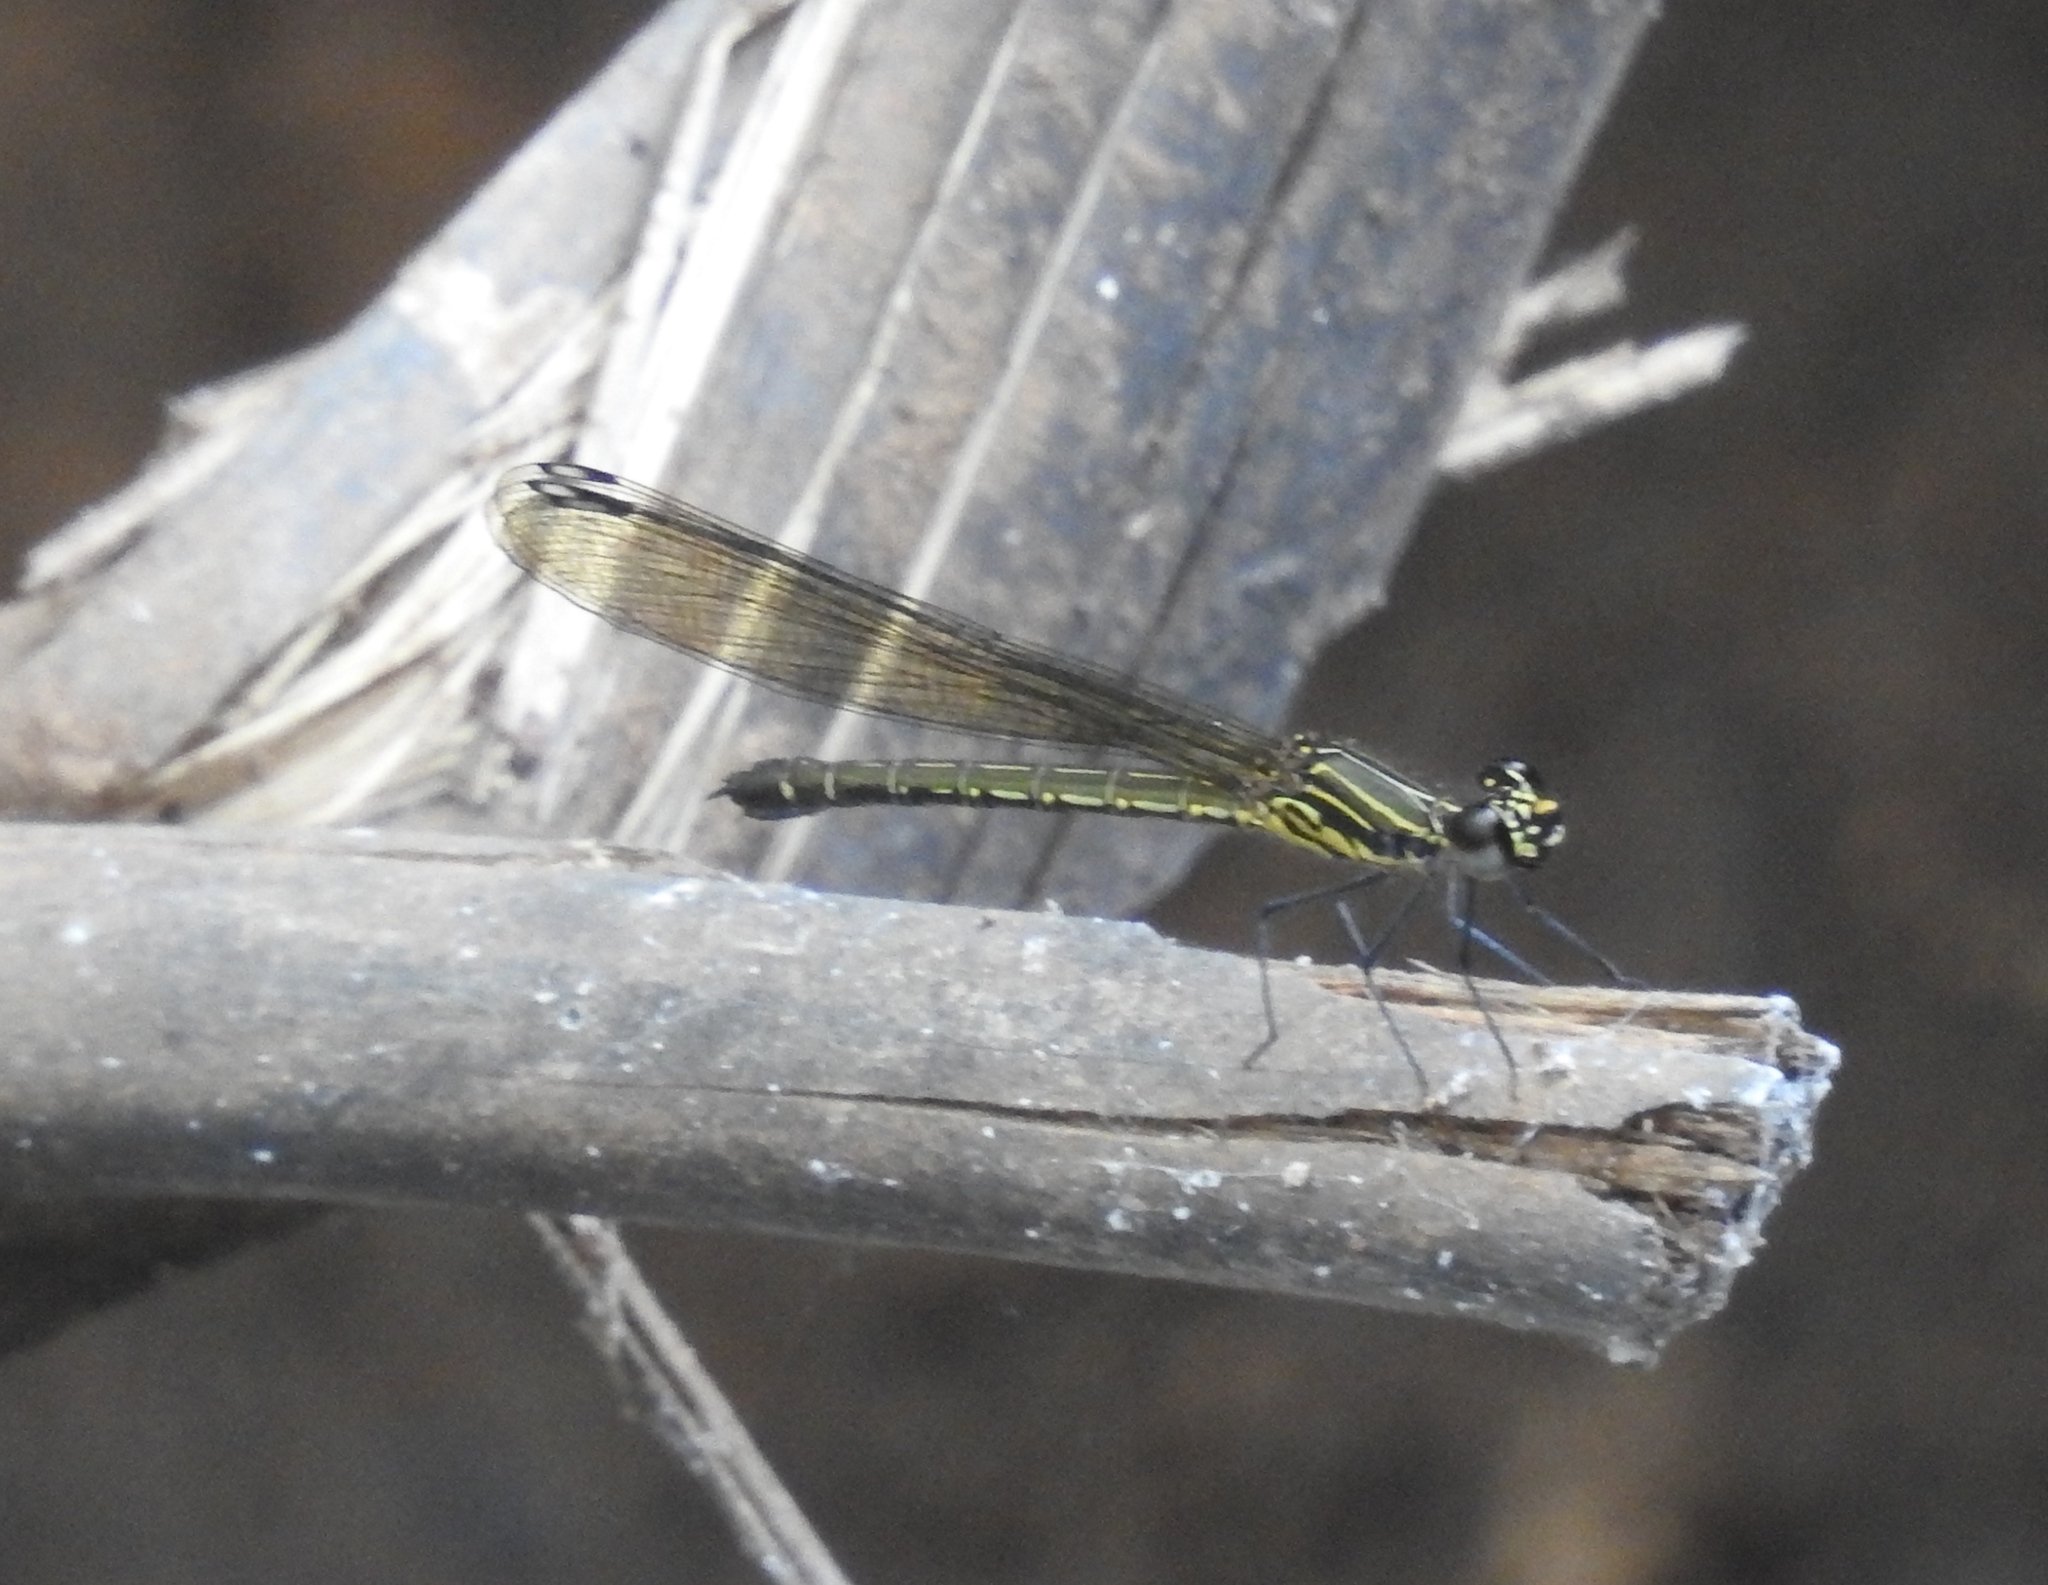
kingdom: Animalia
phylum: Arthropoda
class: Insecta
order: Odonata
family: Chlorocyphidae
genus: Heliocypha
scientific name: Heliocypha bisignata
